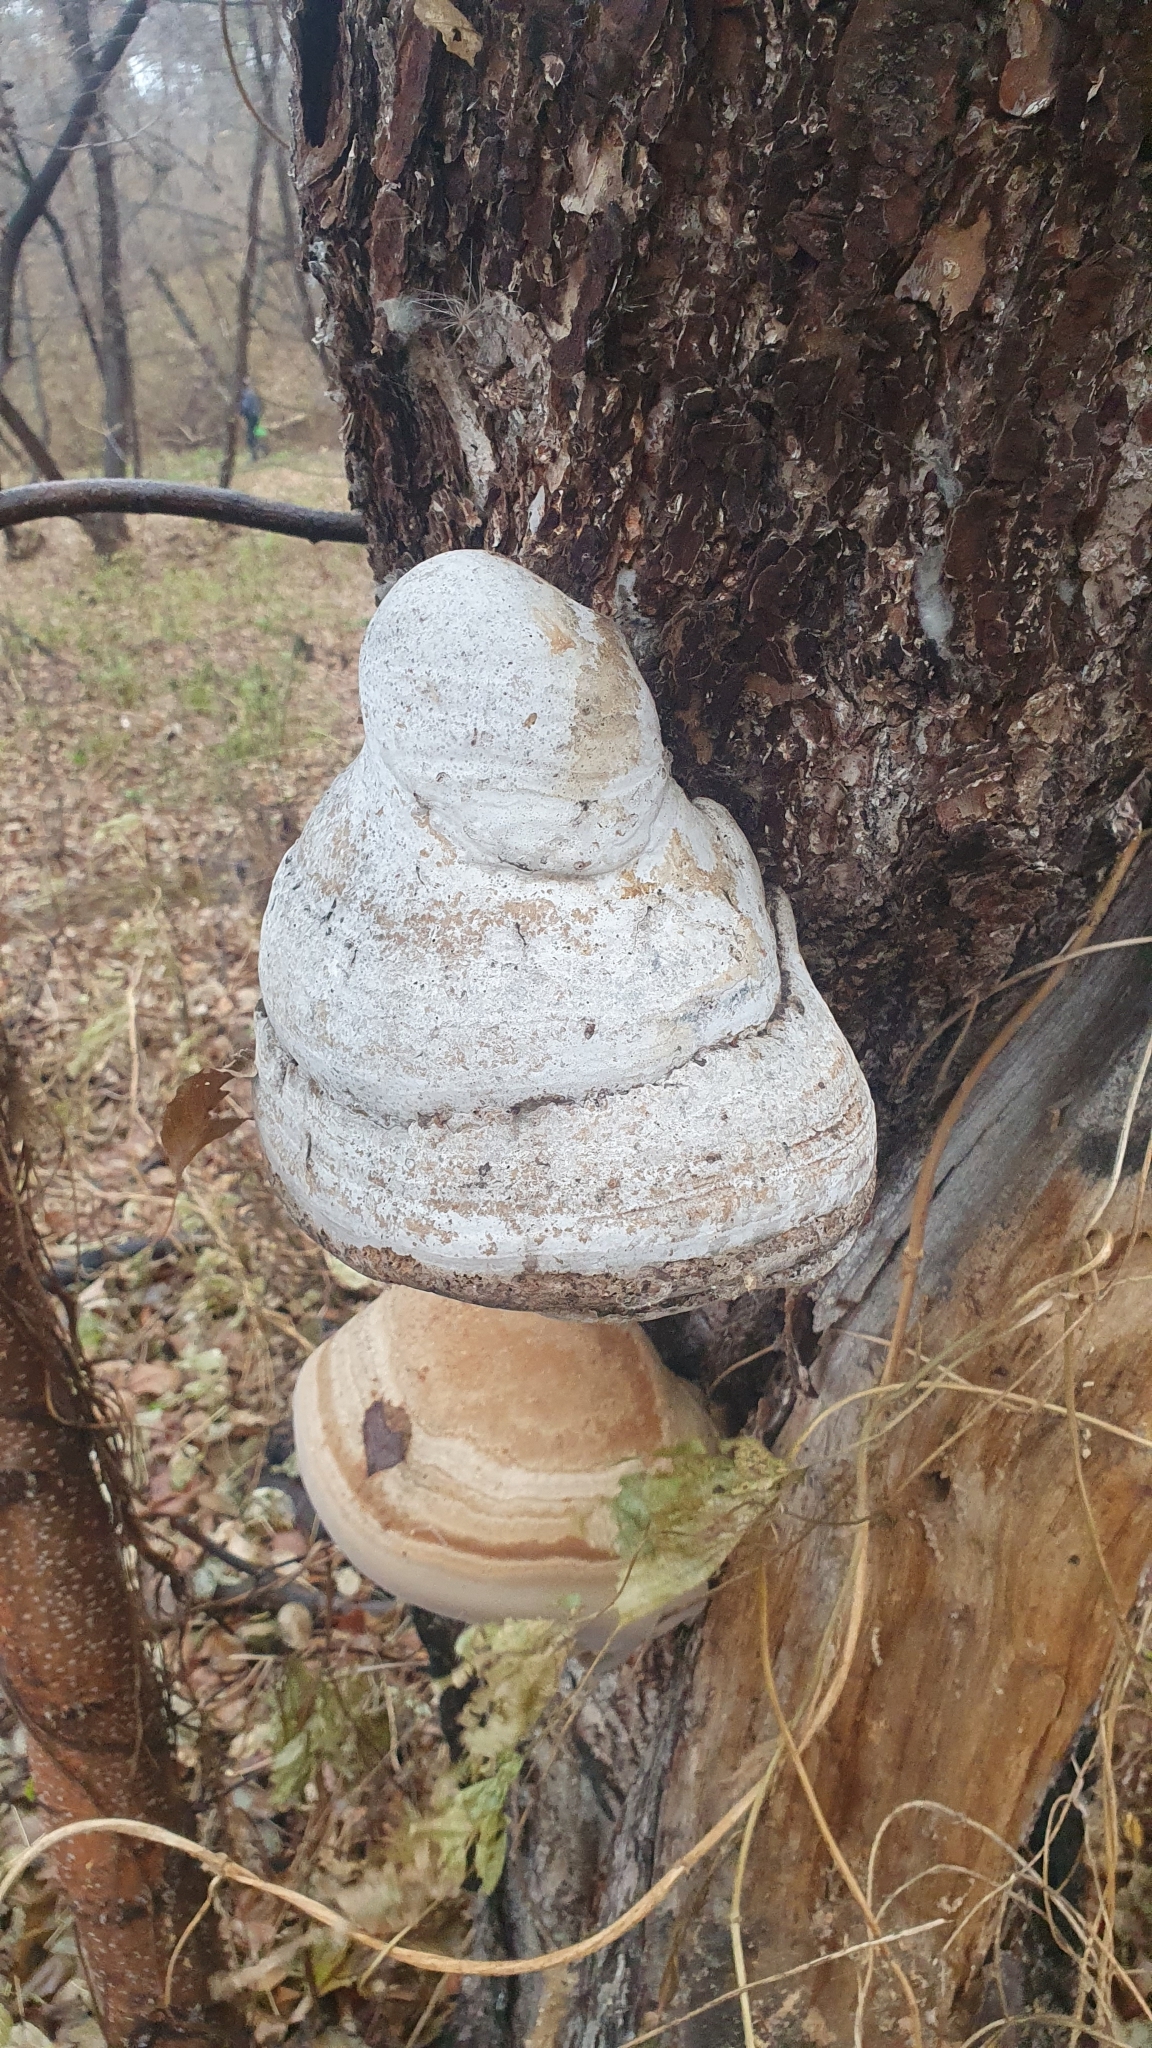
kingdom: Fungi
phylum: Basidiomycota
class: Agaricomycetes
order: Polyporales
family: Polyporaceae
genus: Fomes
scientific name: Fomes fomentarius
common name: Hoof fungus
